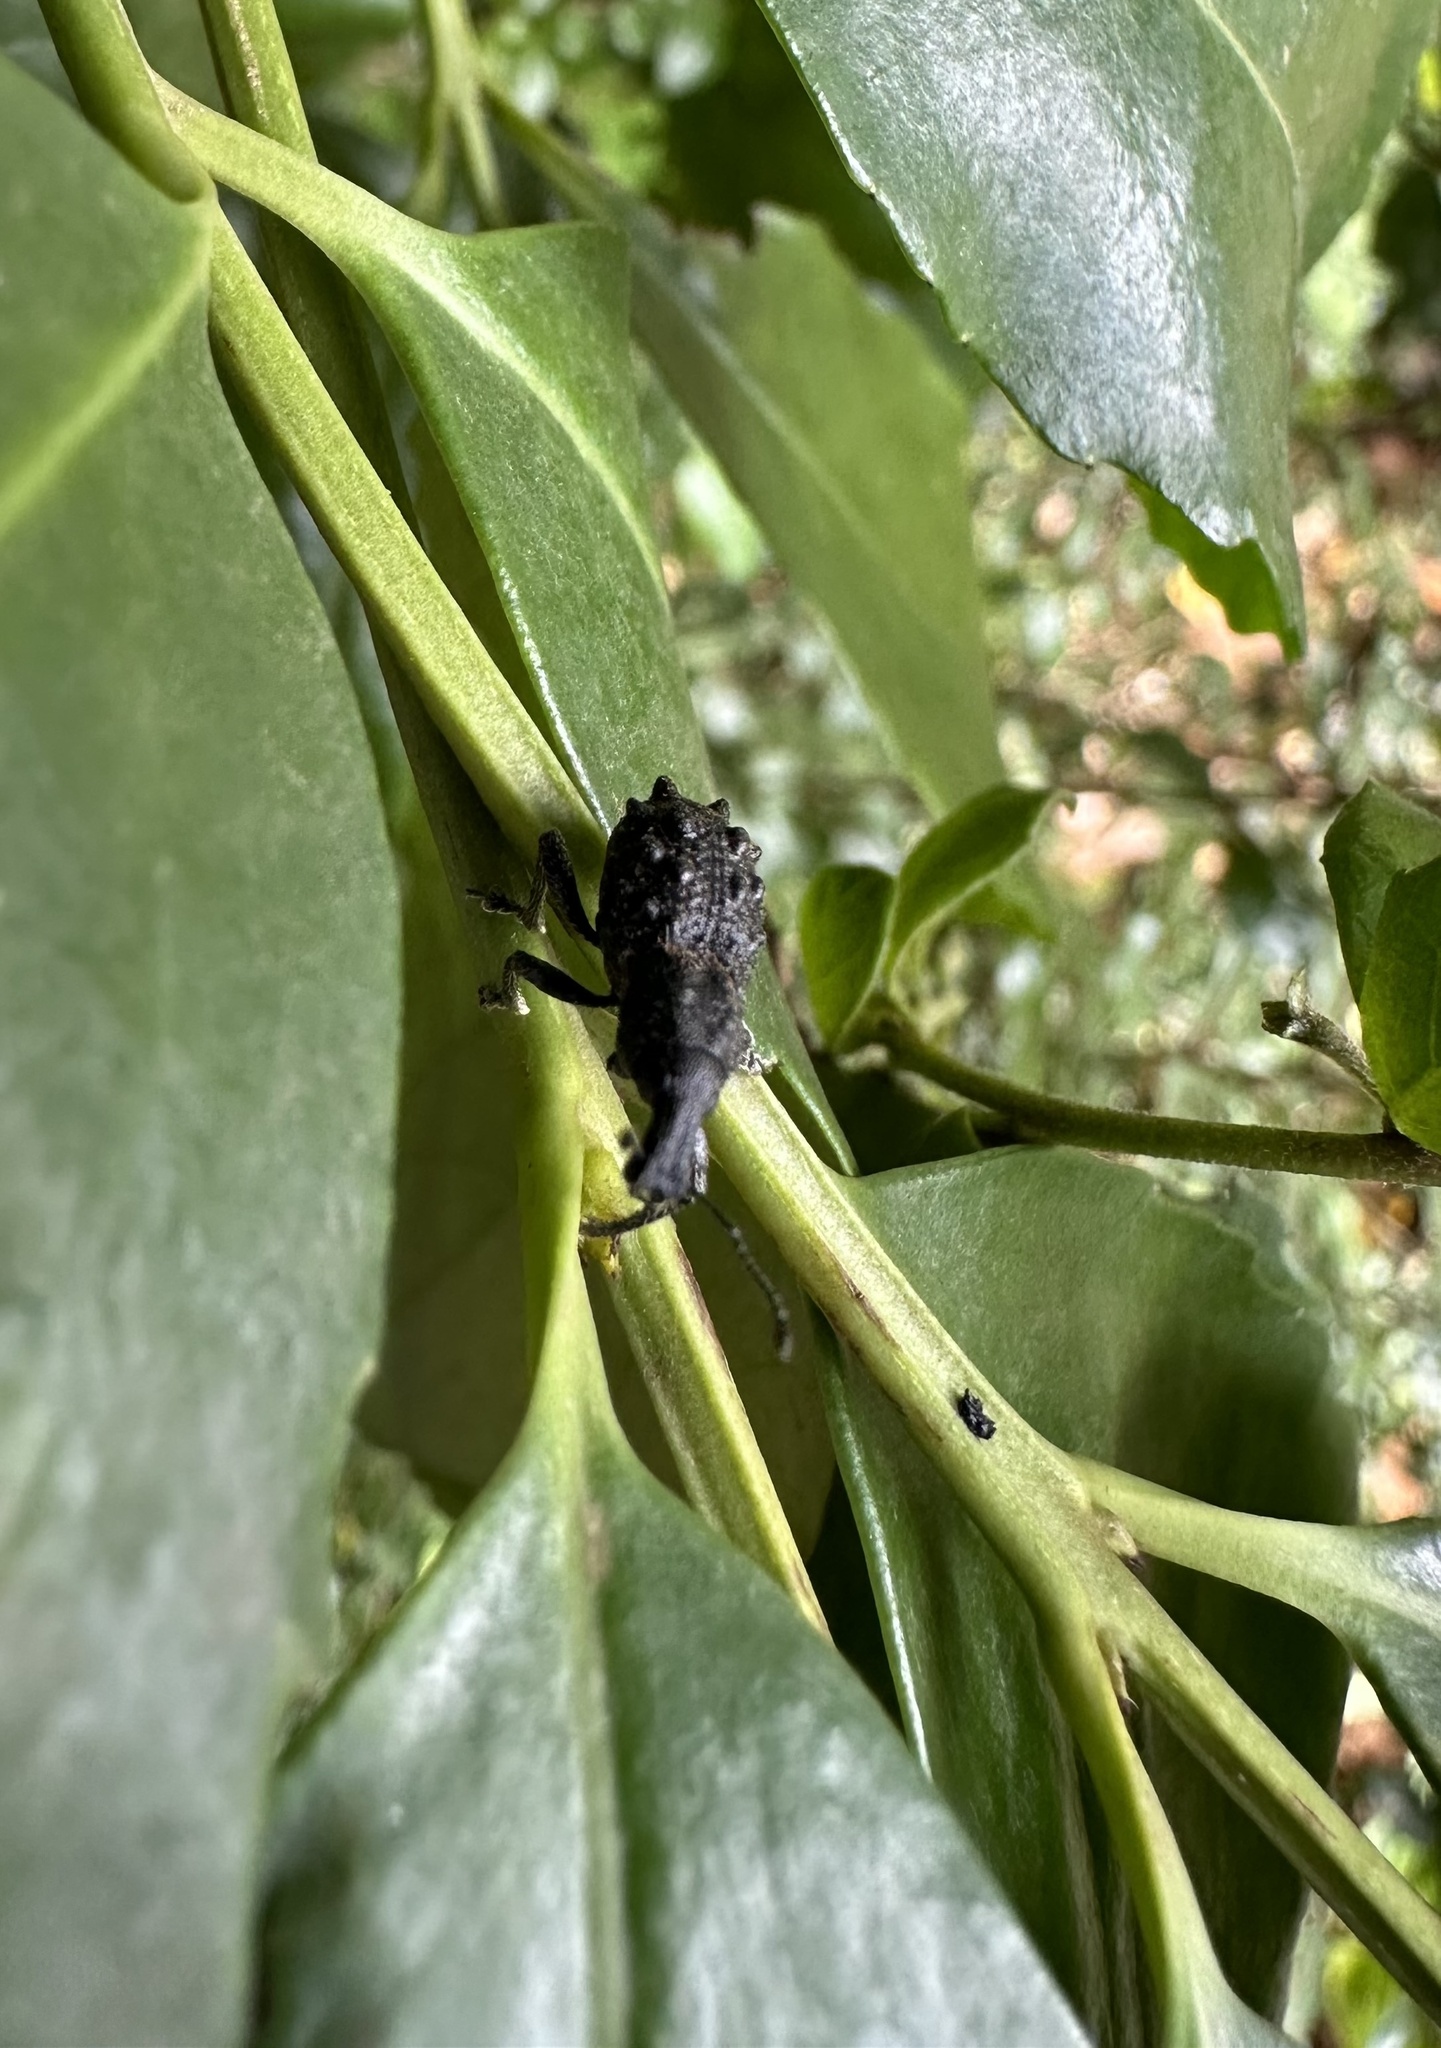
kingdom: Animalia
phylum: Arthropoda
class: Insecta
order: Coleoptera
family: Curculionidae
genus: Megalometis
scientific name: Megalometis spiniferus
